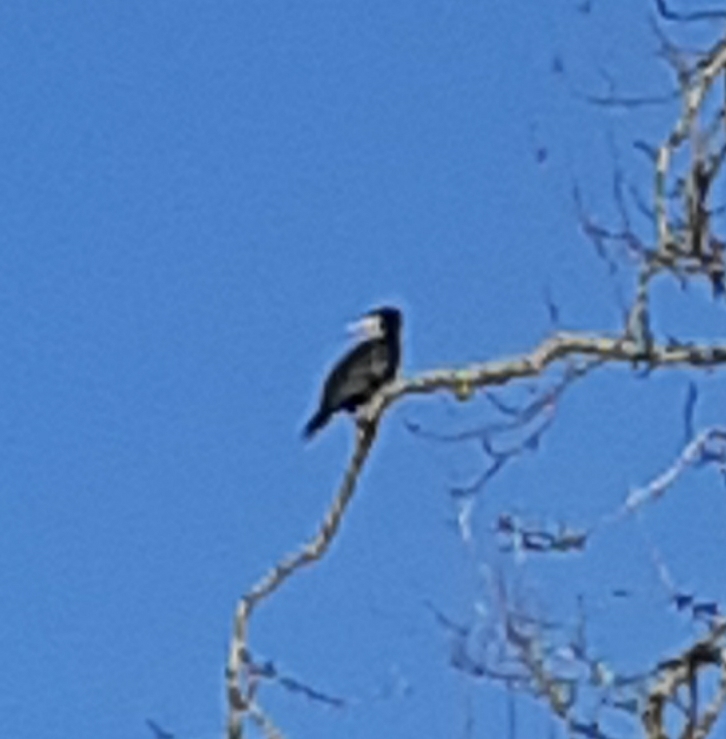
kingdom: Animalia
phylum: Chordata
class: Aves
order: Suliformes
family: Phalacrocoracidae
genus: Phalacrocorax
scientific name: Phalacrocorax carbo
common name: Great cormorant
